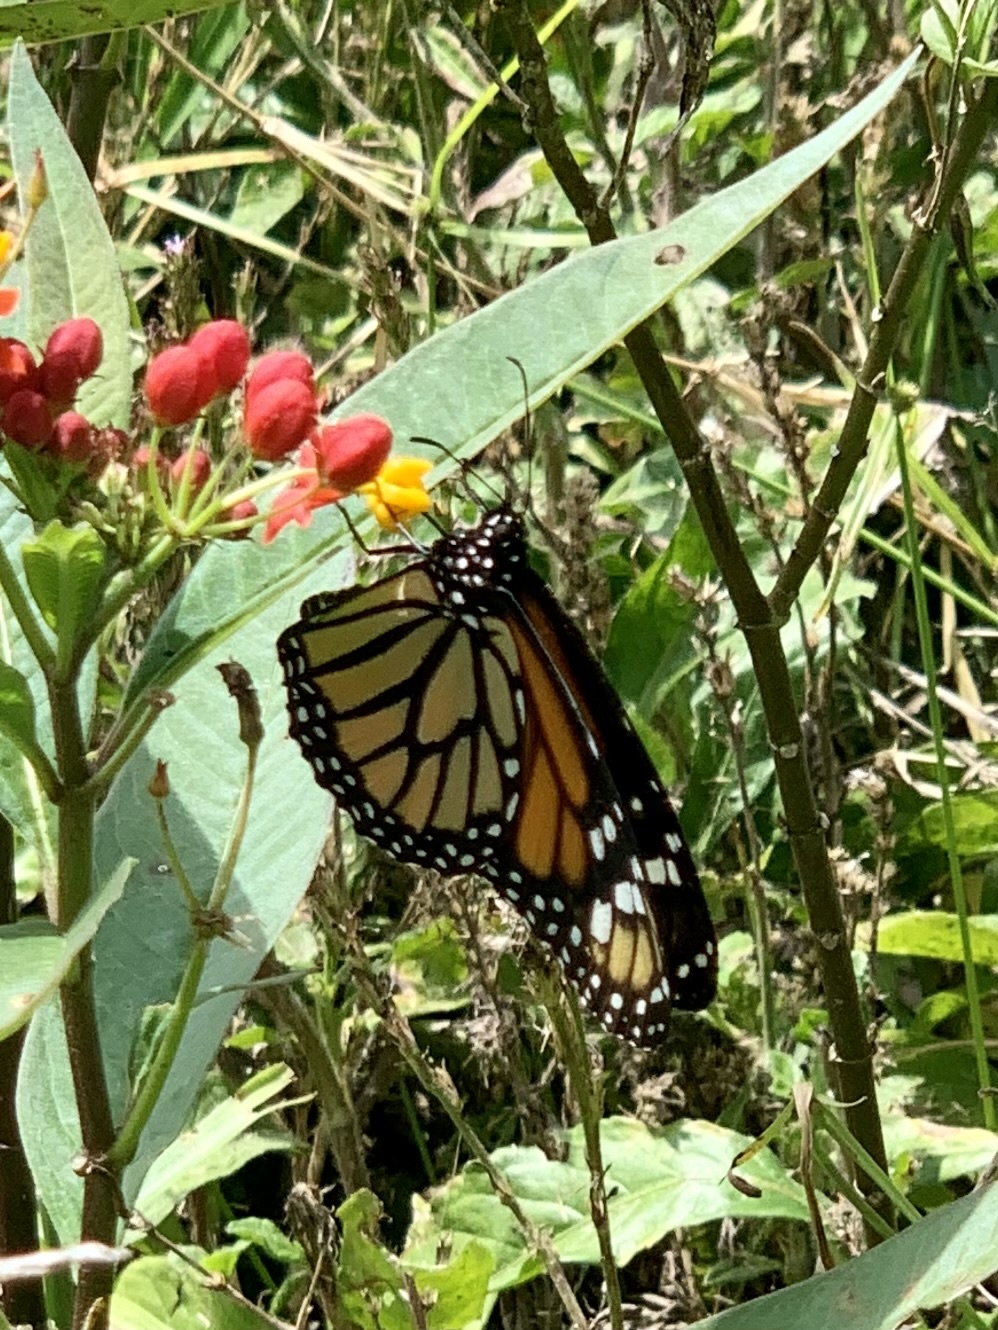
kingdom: Animalia
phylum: Arthropoda
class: Insecta
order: Lepidoptera
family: Nymphalidae
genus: Danaus
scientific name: Danaus plexippus
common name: Monarch
